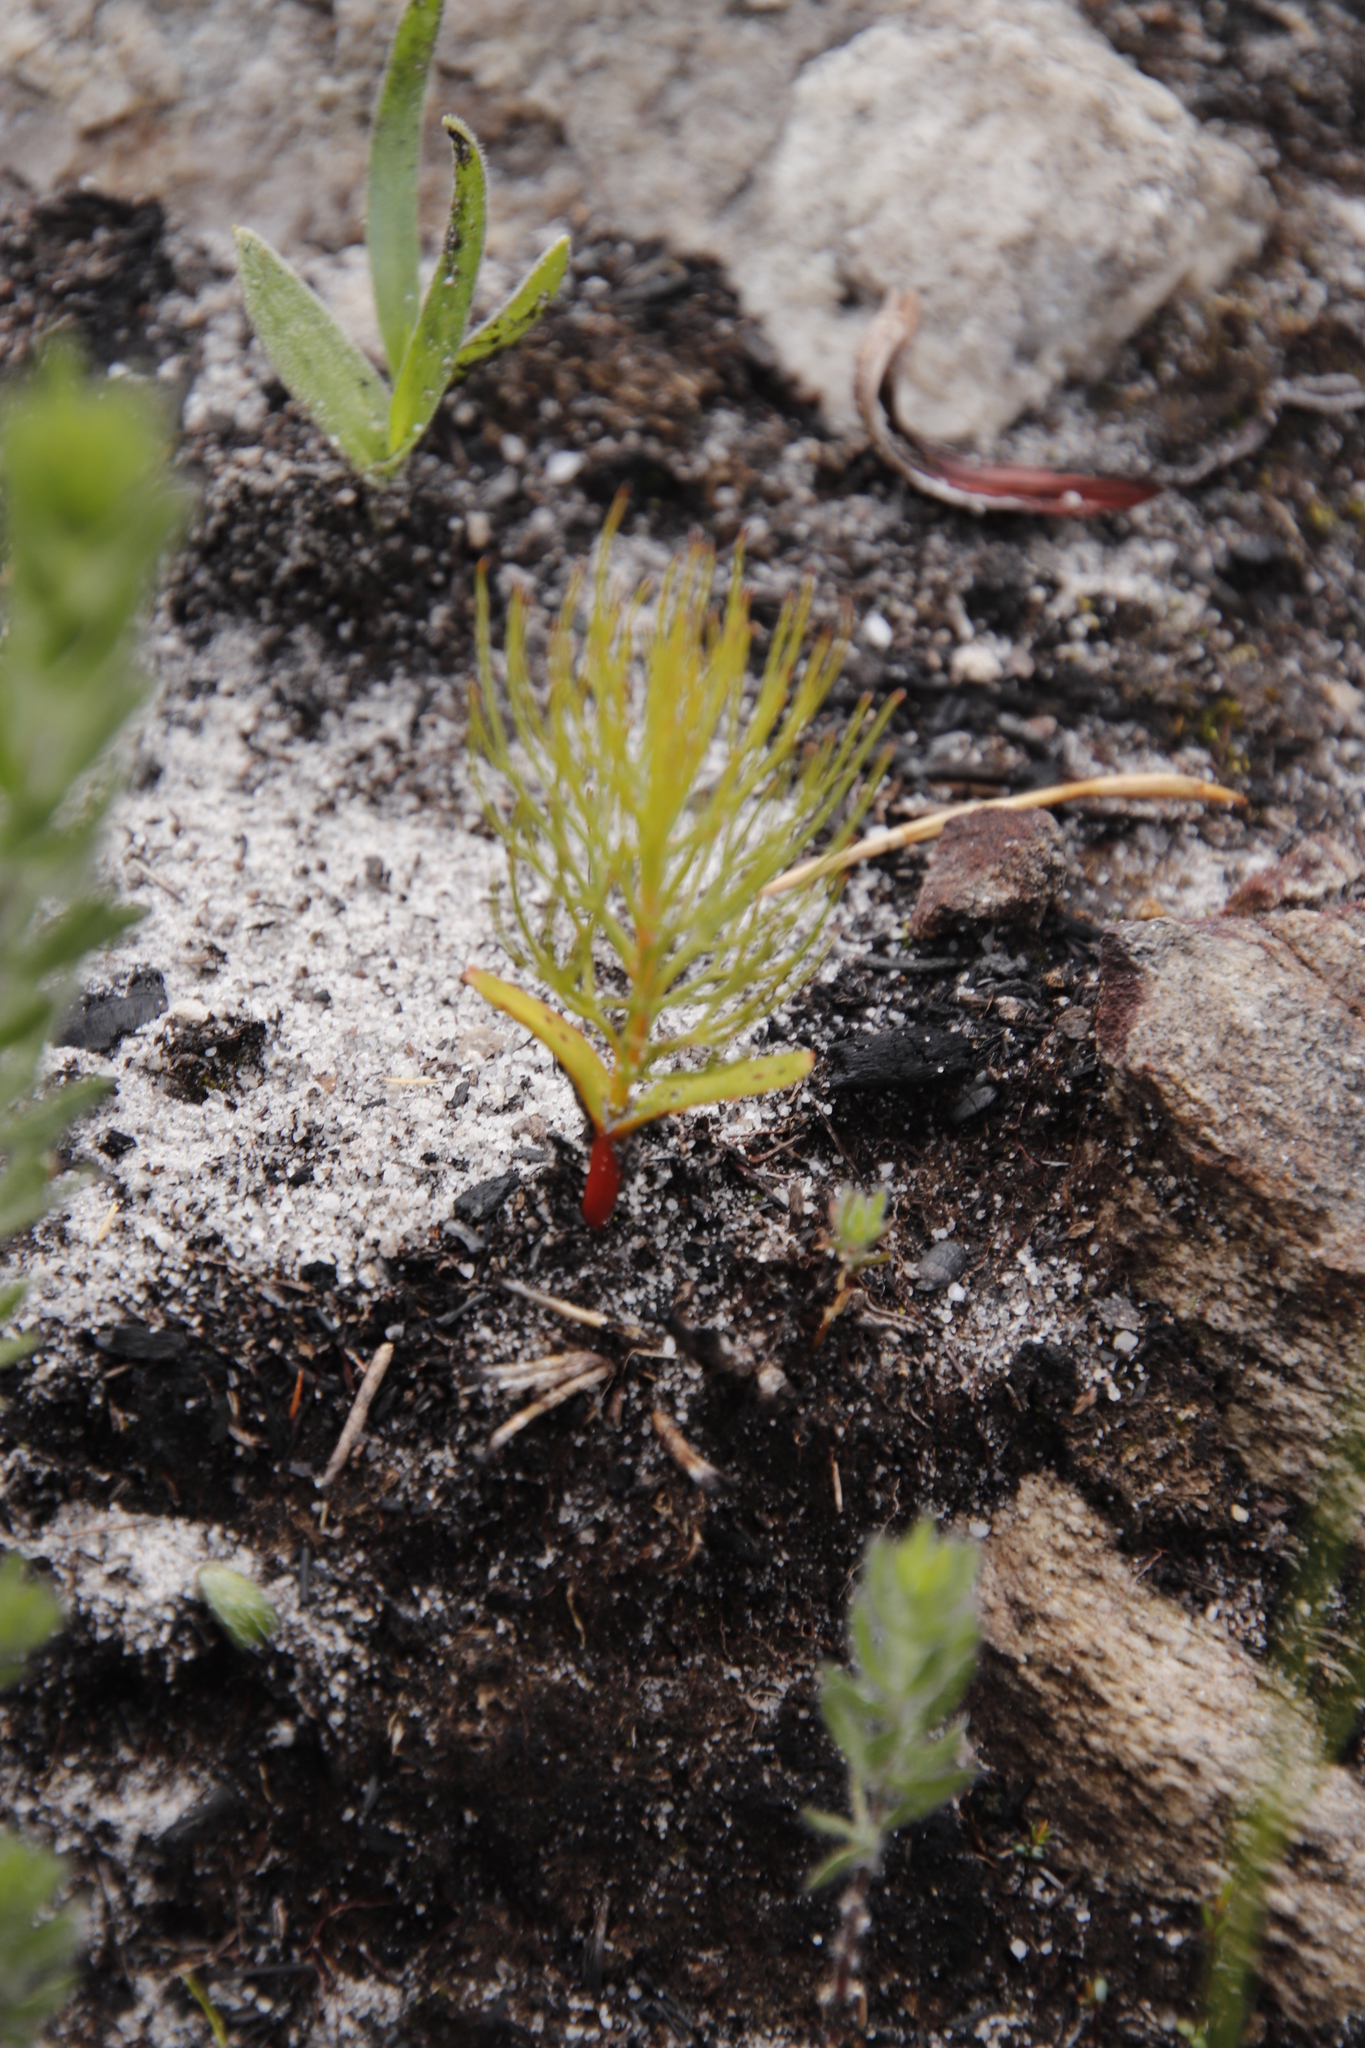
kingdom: Plantae
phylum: Tracheophyta
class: Magnoliopsida
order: Proteales
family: Proteaceae
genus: Serruria
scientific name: Serruria florida
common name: Blushing bride
